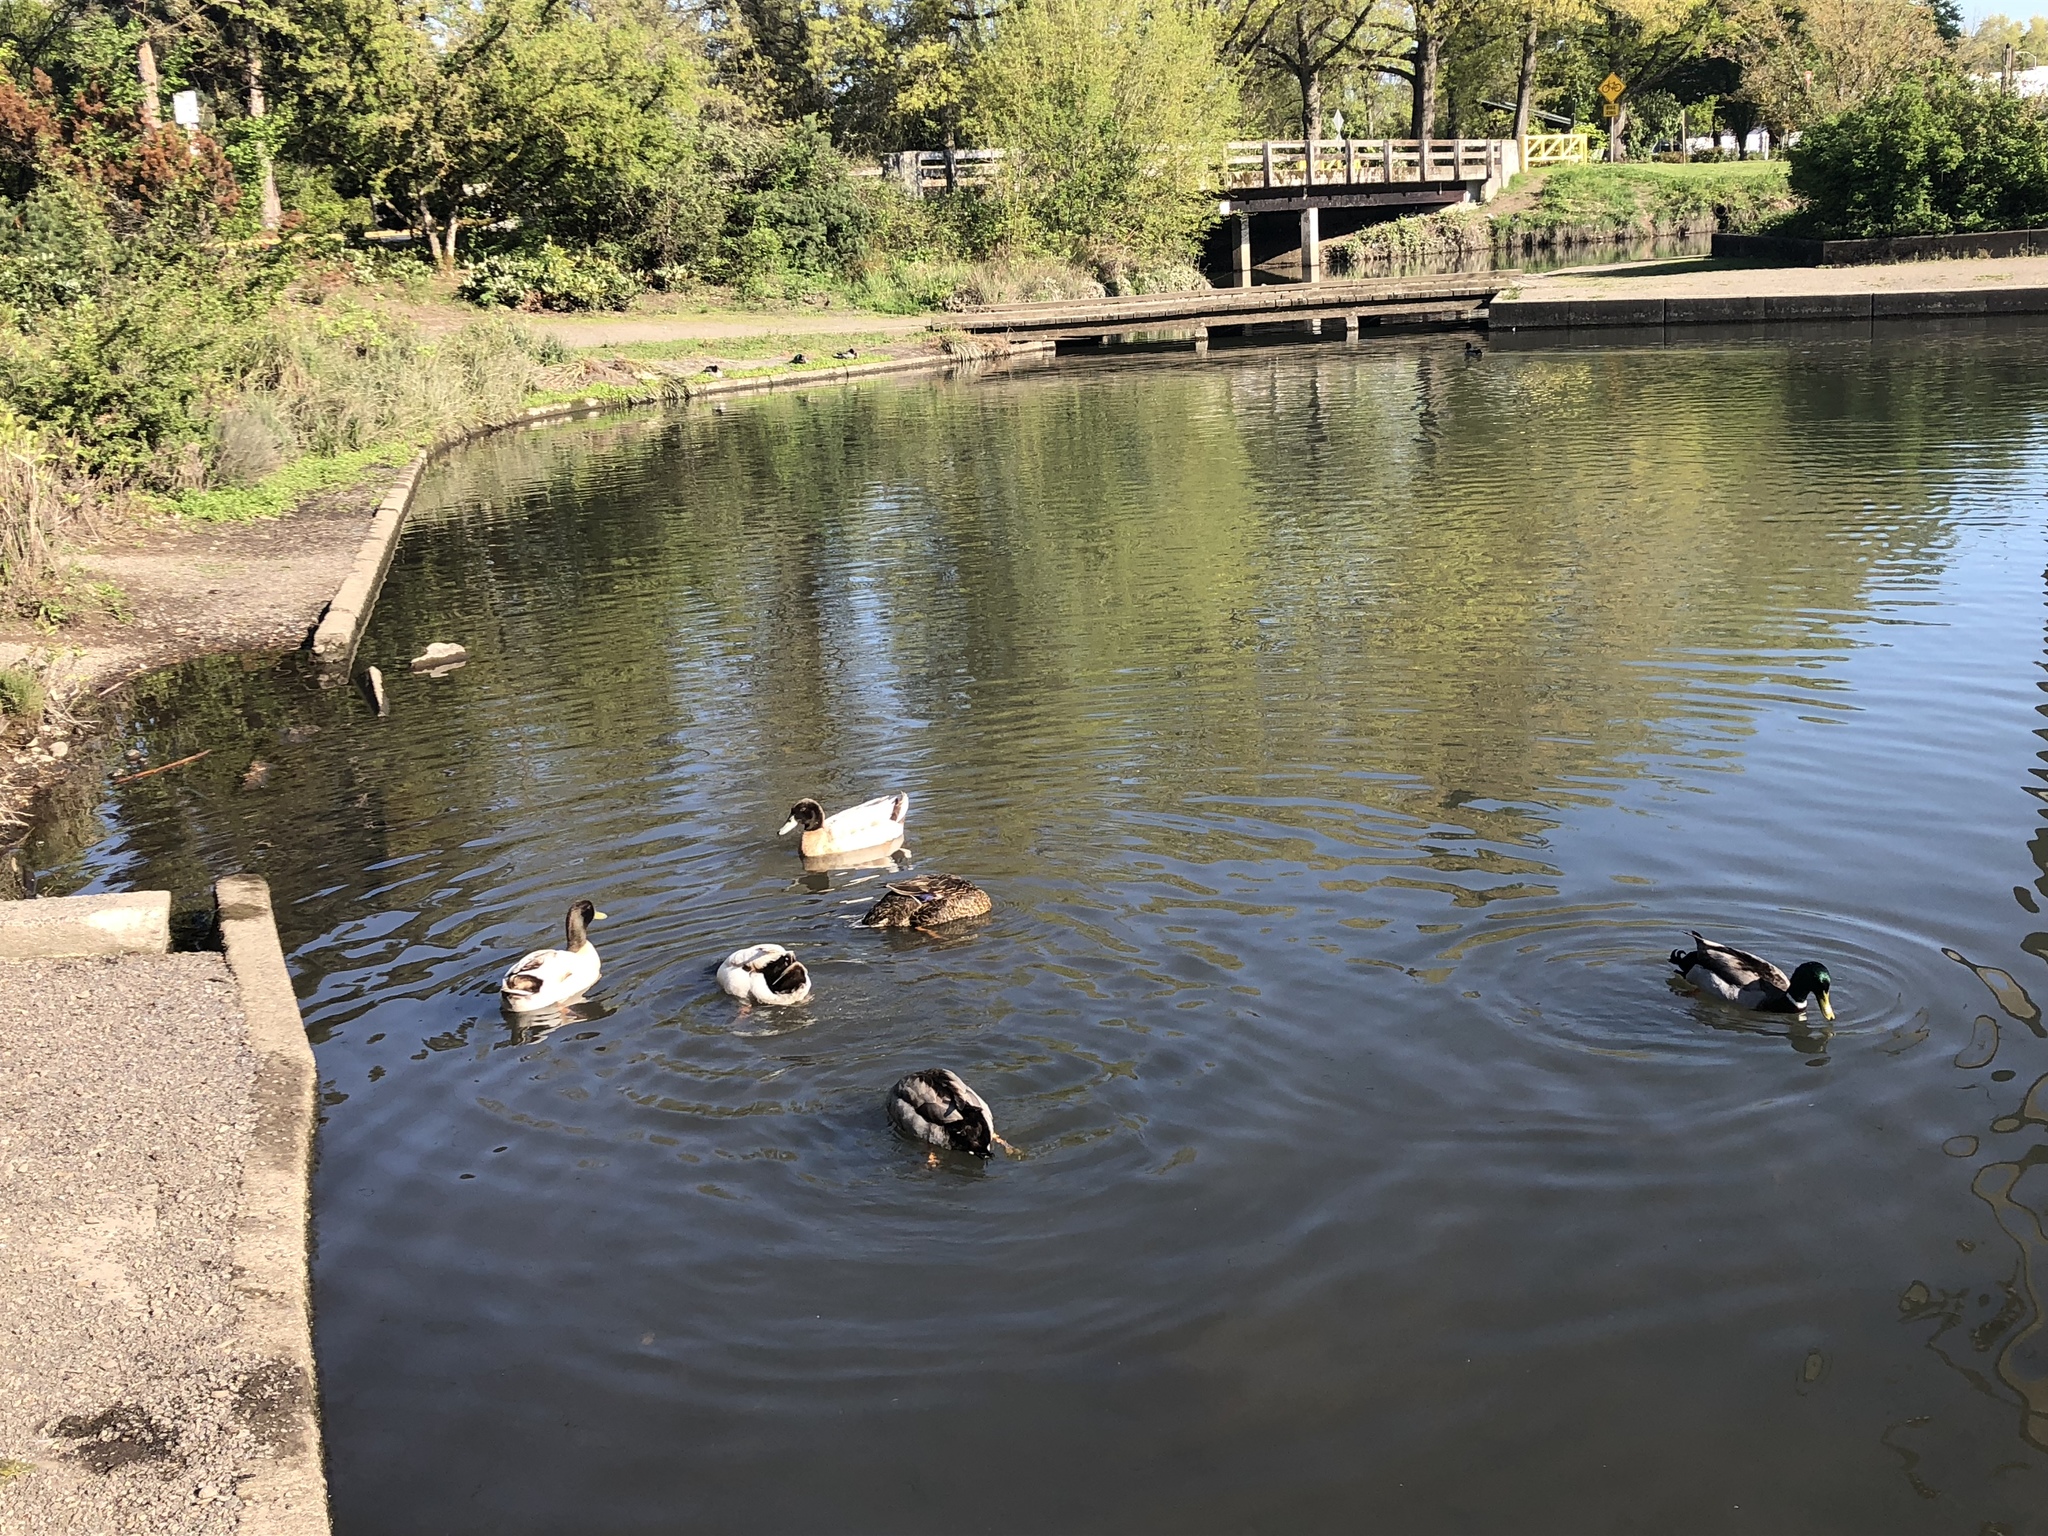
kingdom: Animalia
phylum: Chordata
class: Aves
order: Anseriformes
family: Anatidae
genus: Anas
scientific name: Anas platyrhynchos
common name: Mallard
